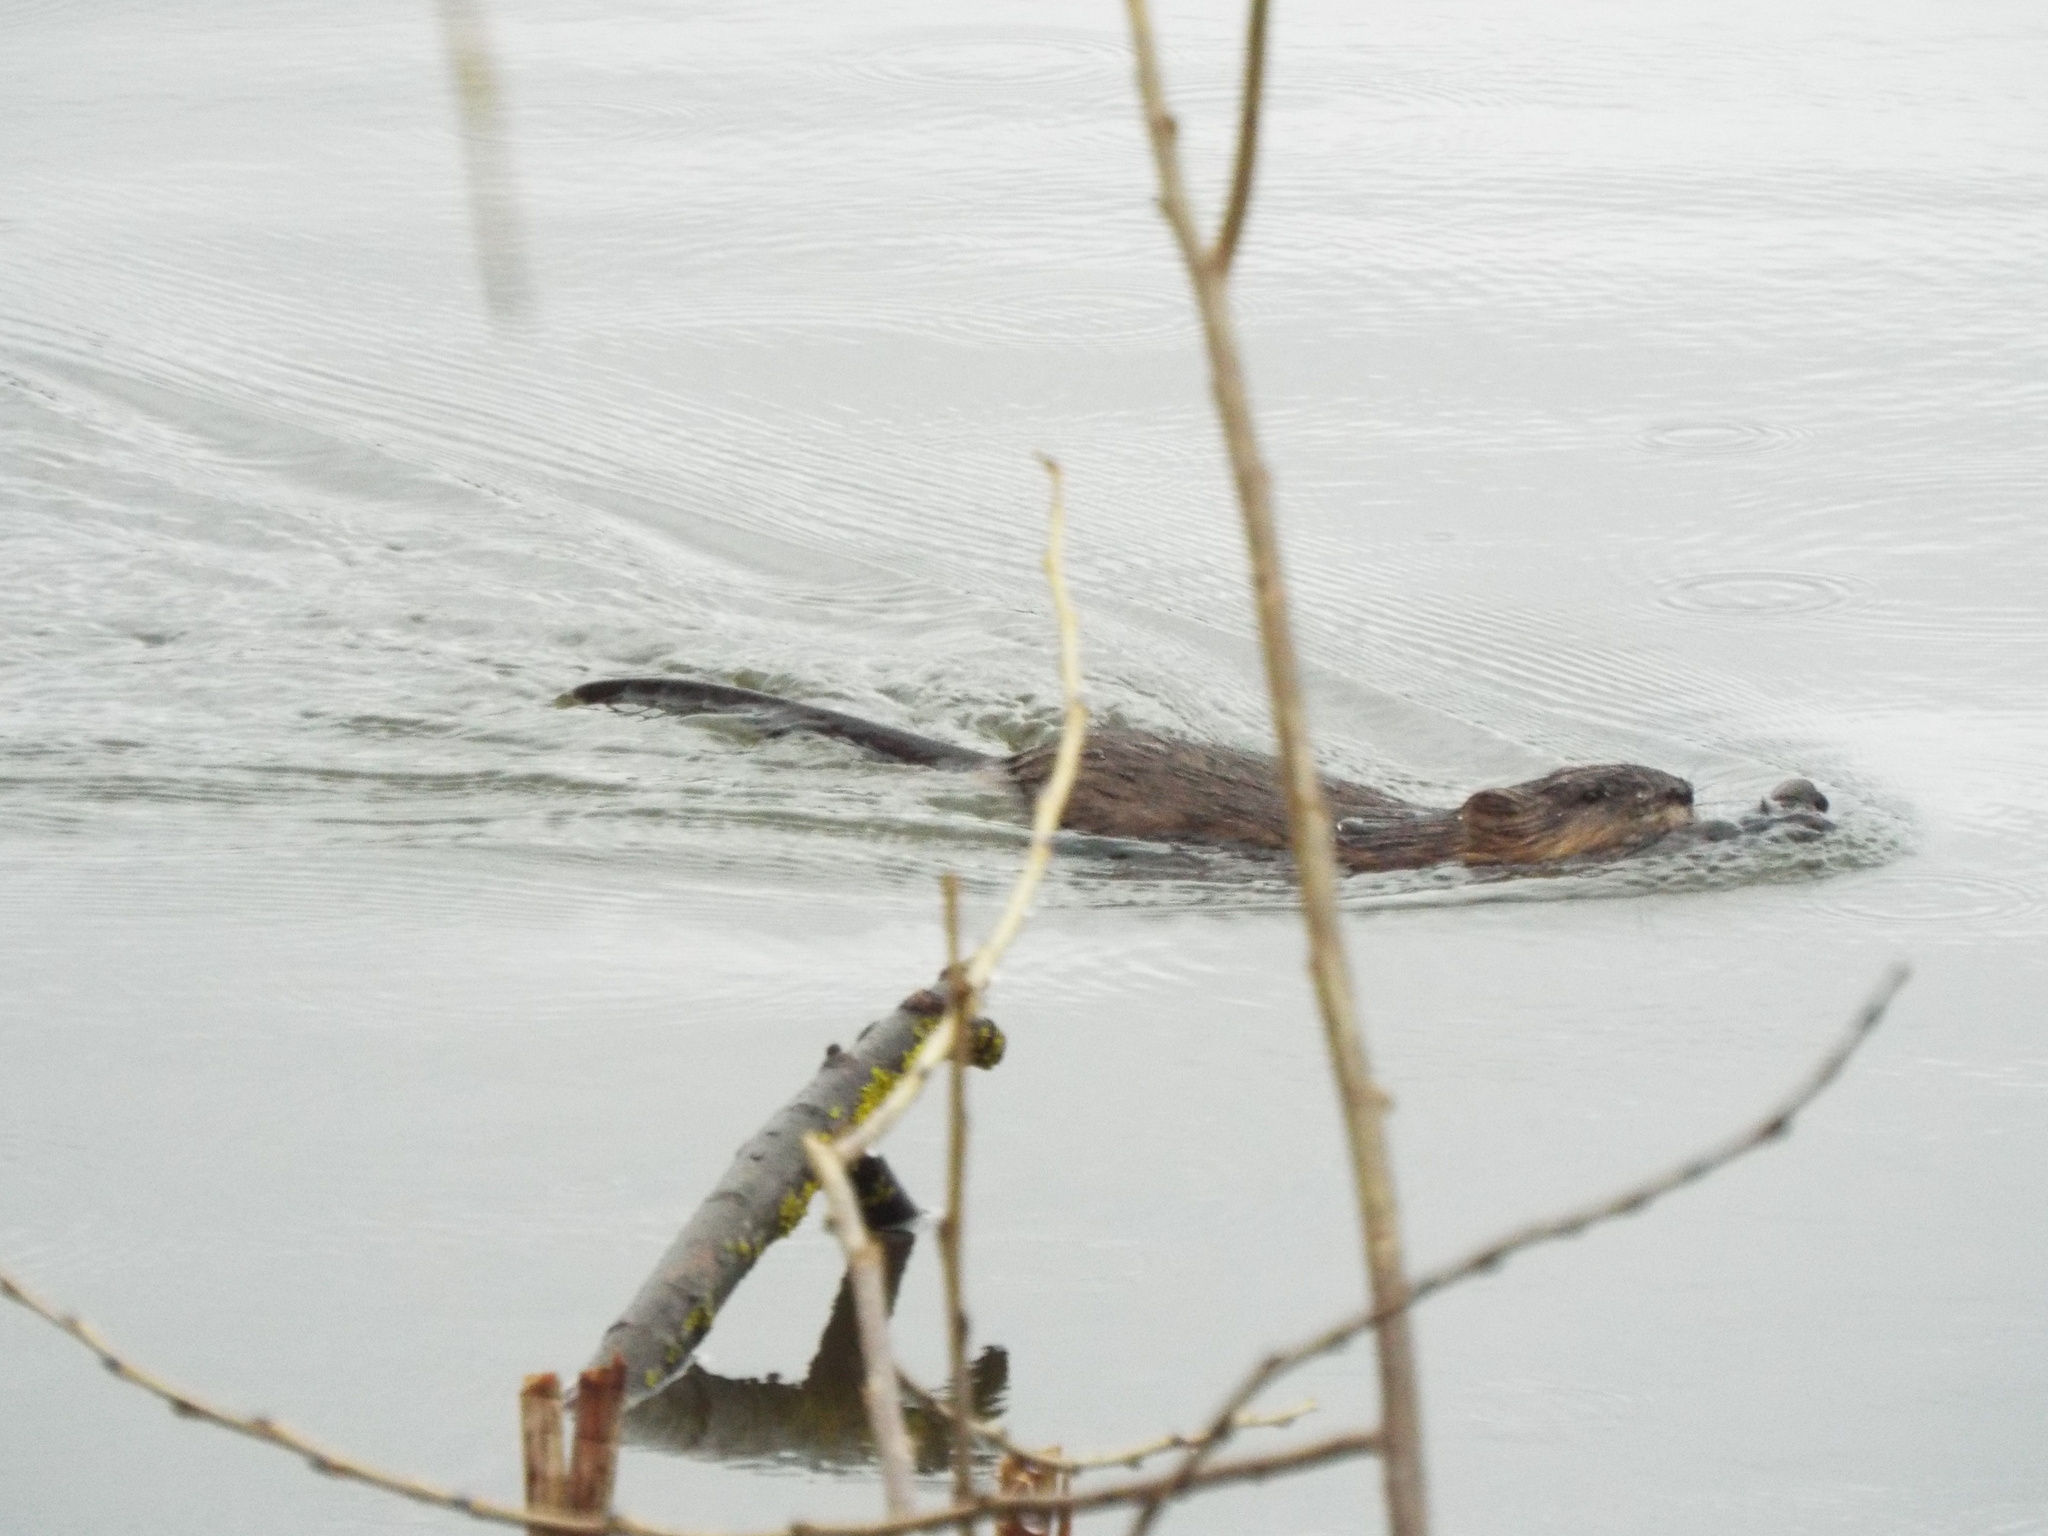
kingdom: Animalia
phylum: Chordata
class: Mammalia
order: Rodentia
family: Cricetidae
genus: Ondatra
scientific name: Ondatra zibethicus
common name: Muskrat
